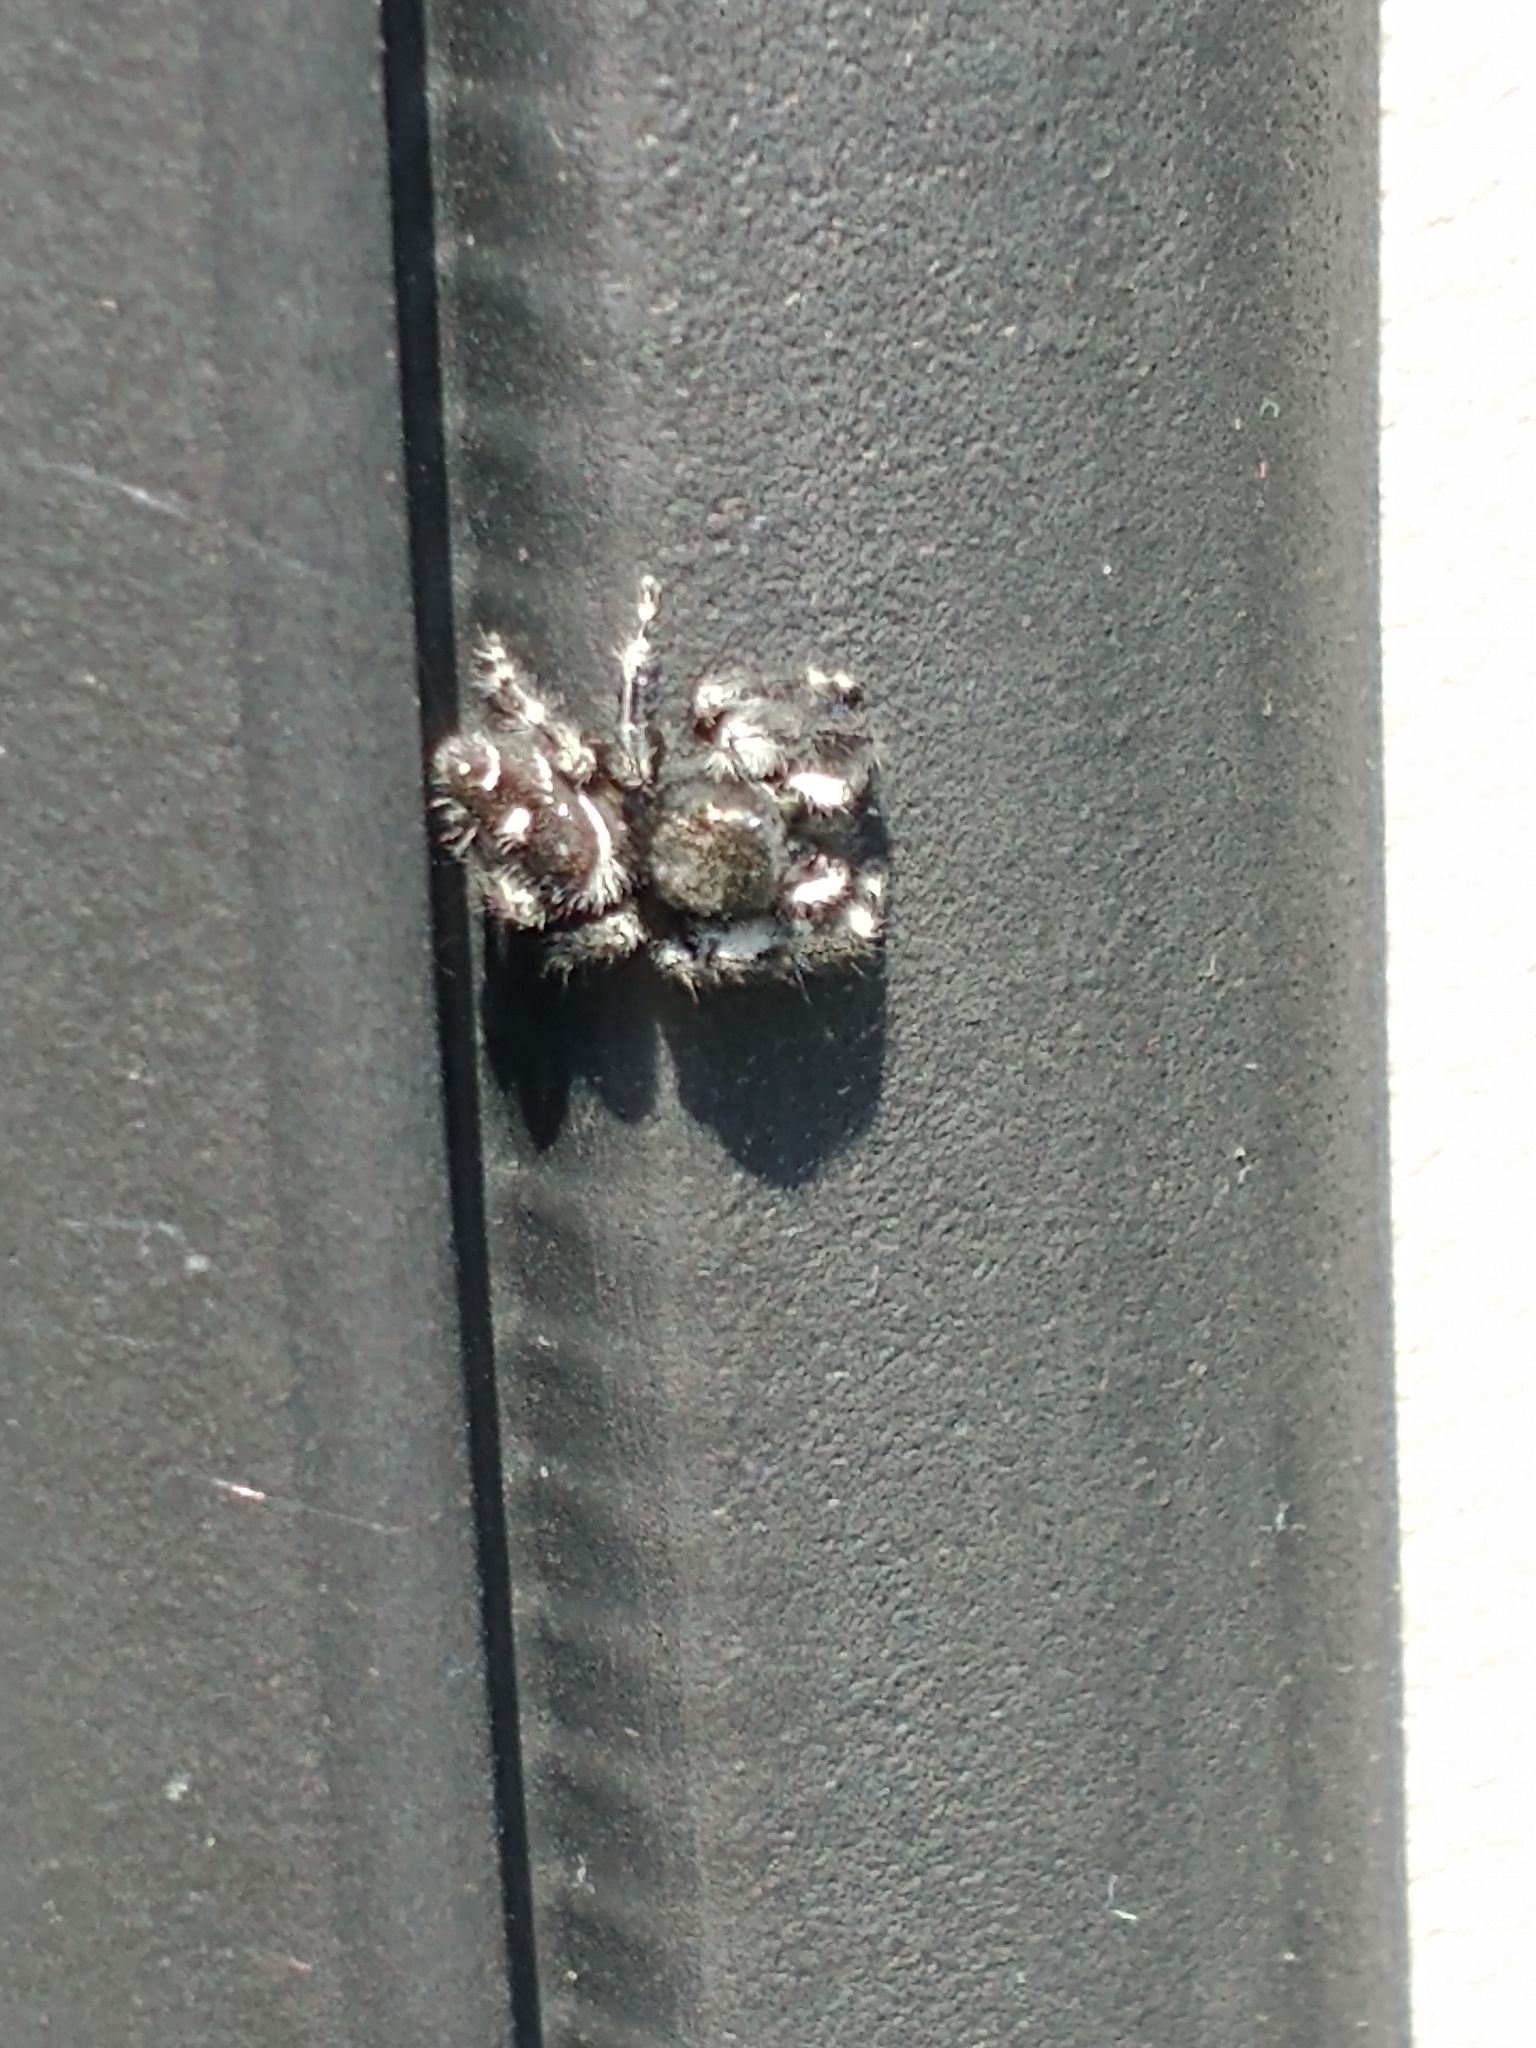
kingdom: Animalia
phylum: Arthropoda
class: Arachnida
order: Araneae
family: Salticidae
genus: Phidippus
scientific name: Phidippus audax
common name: Bold jumper
